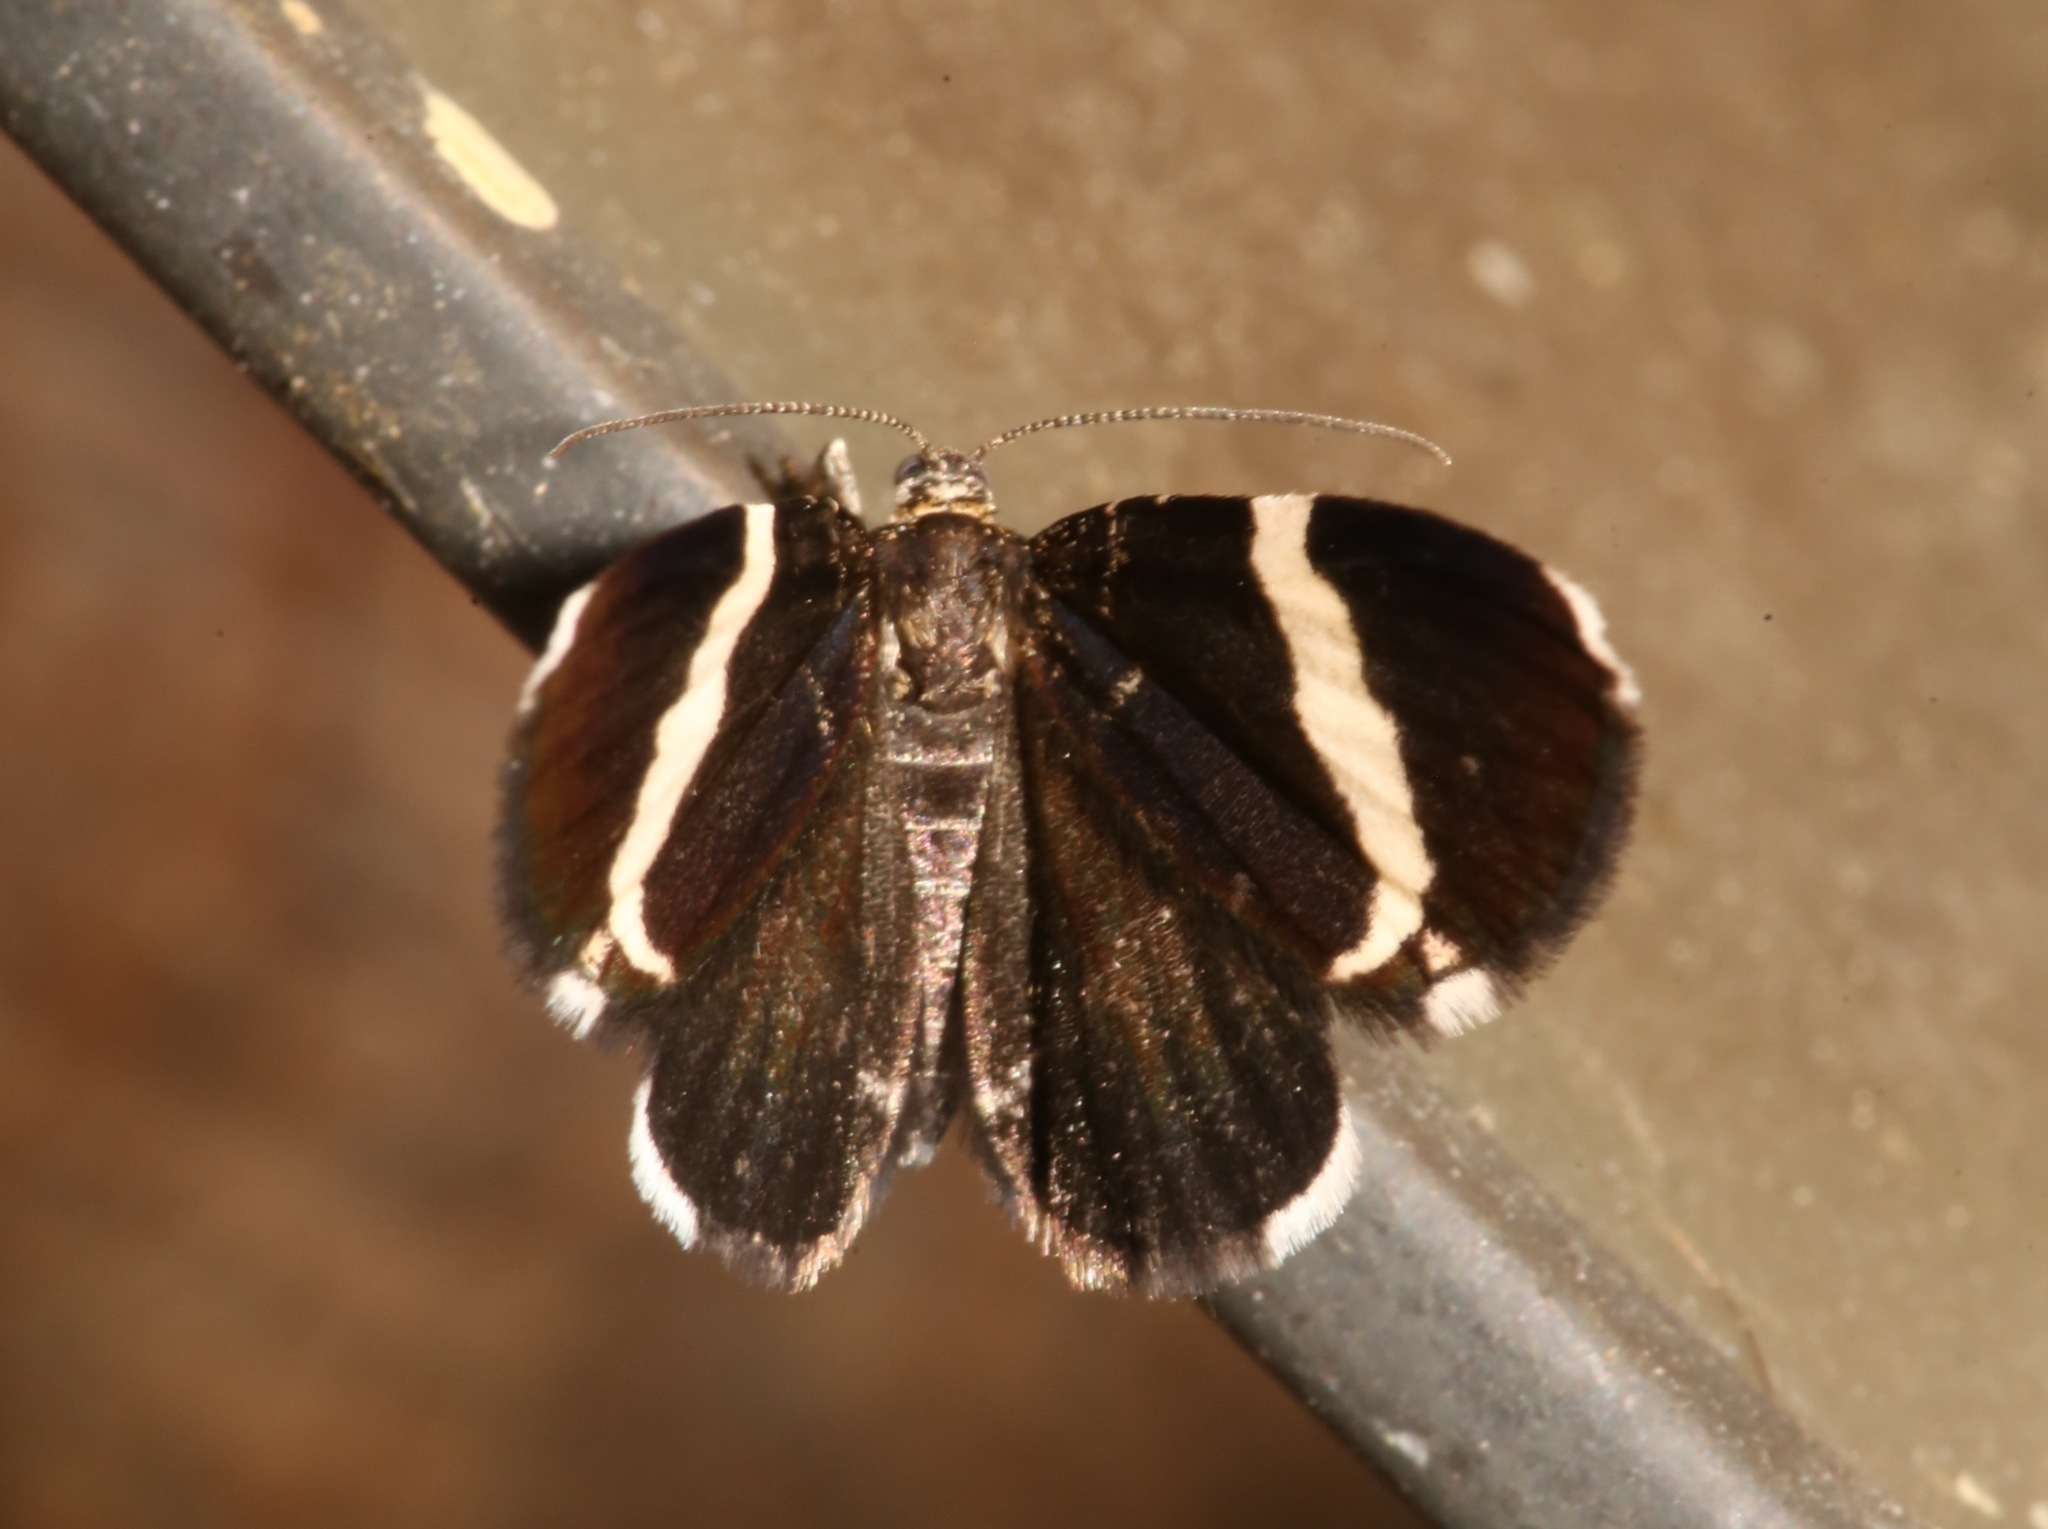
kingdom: Animalia
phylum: Arthropoda
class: Insecta
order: Lepidoptera
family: Geometridae
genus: Trichodezia
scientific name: Trichodezia albovittata
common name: White striped black
